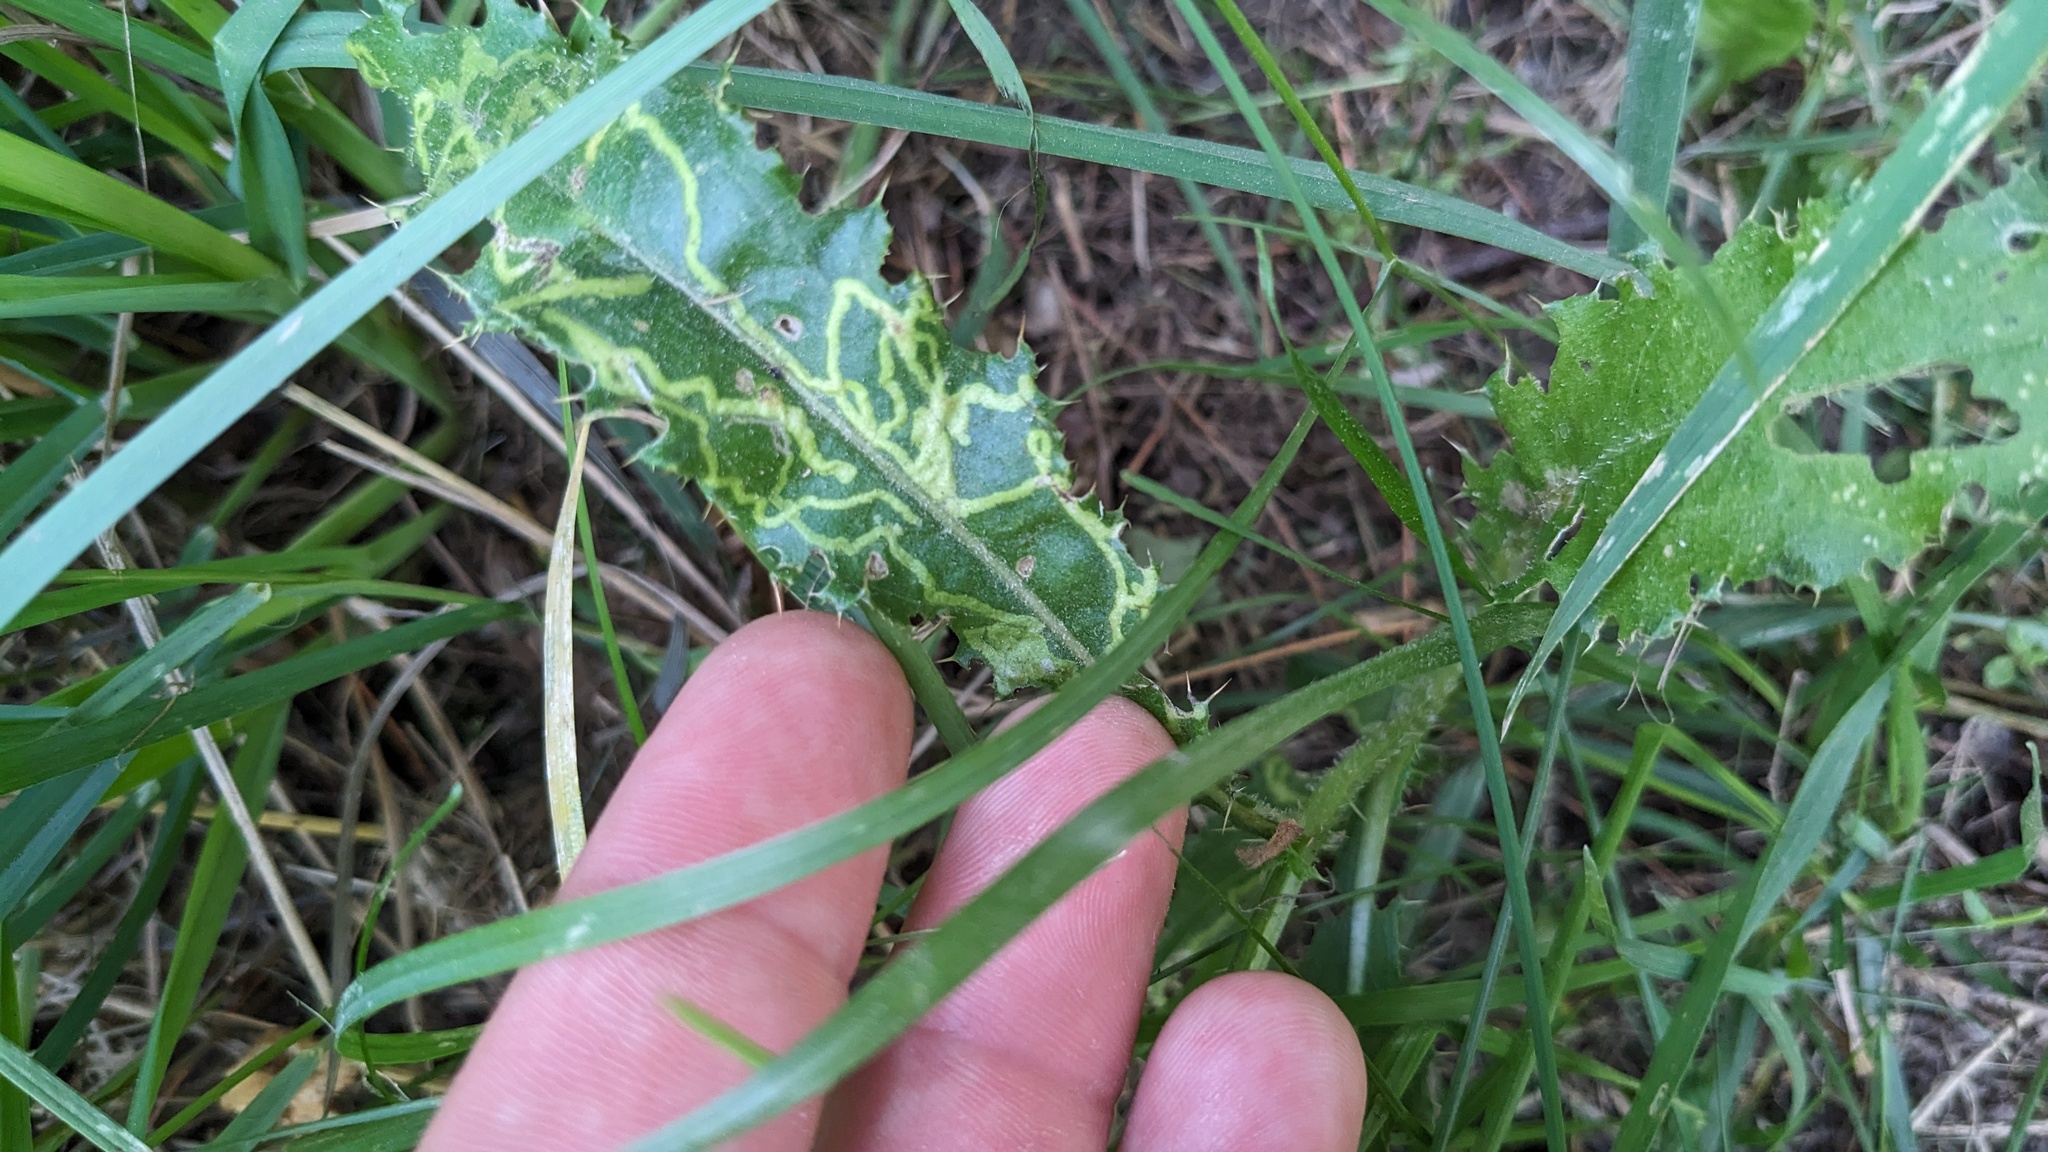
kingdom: Animalia
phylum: Arthropoda
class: Insecta
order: Diptera
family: Agromyzidae
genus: Phytomyza
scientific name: Phytomyza spinaciae
